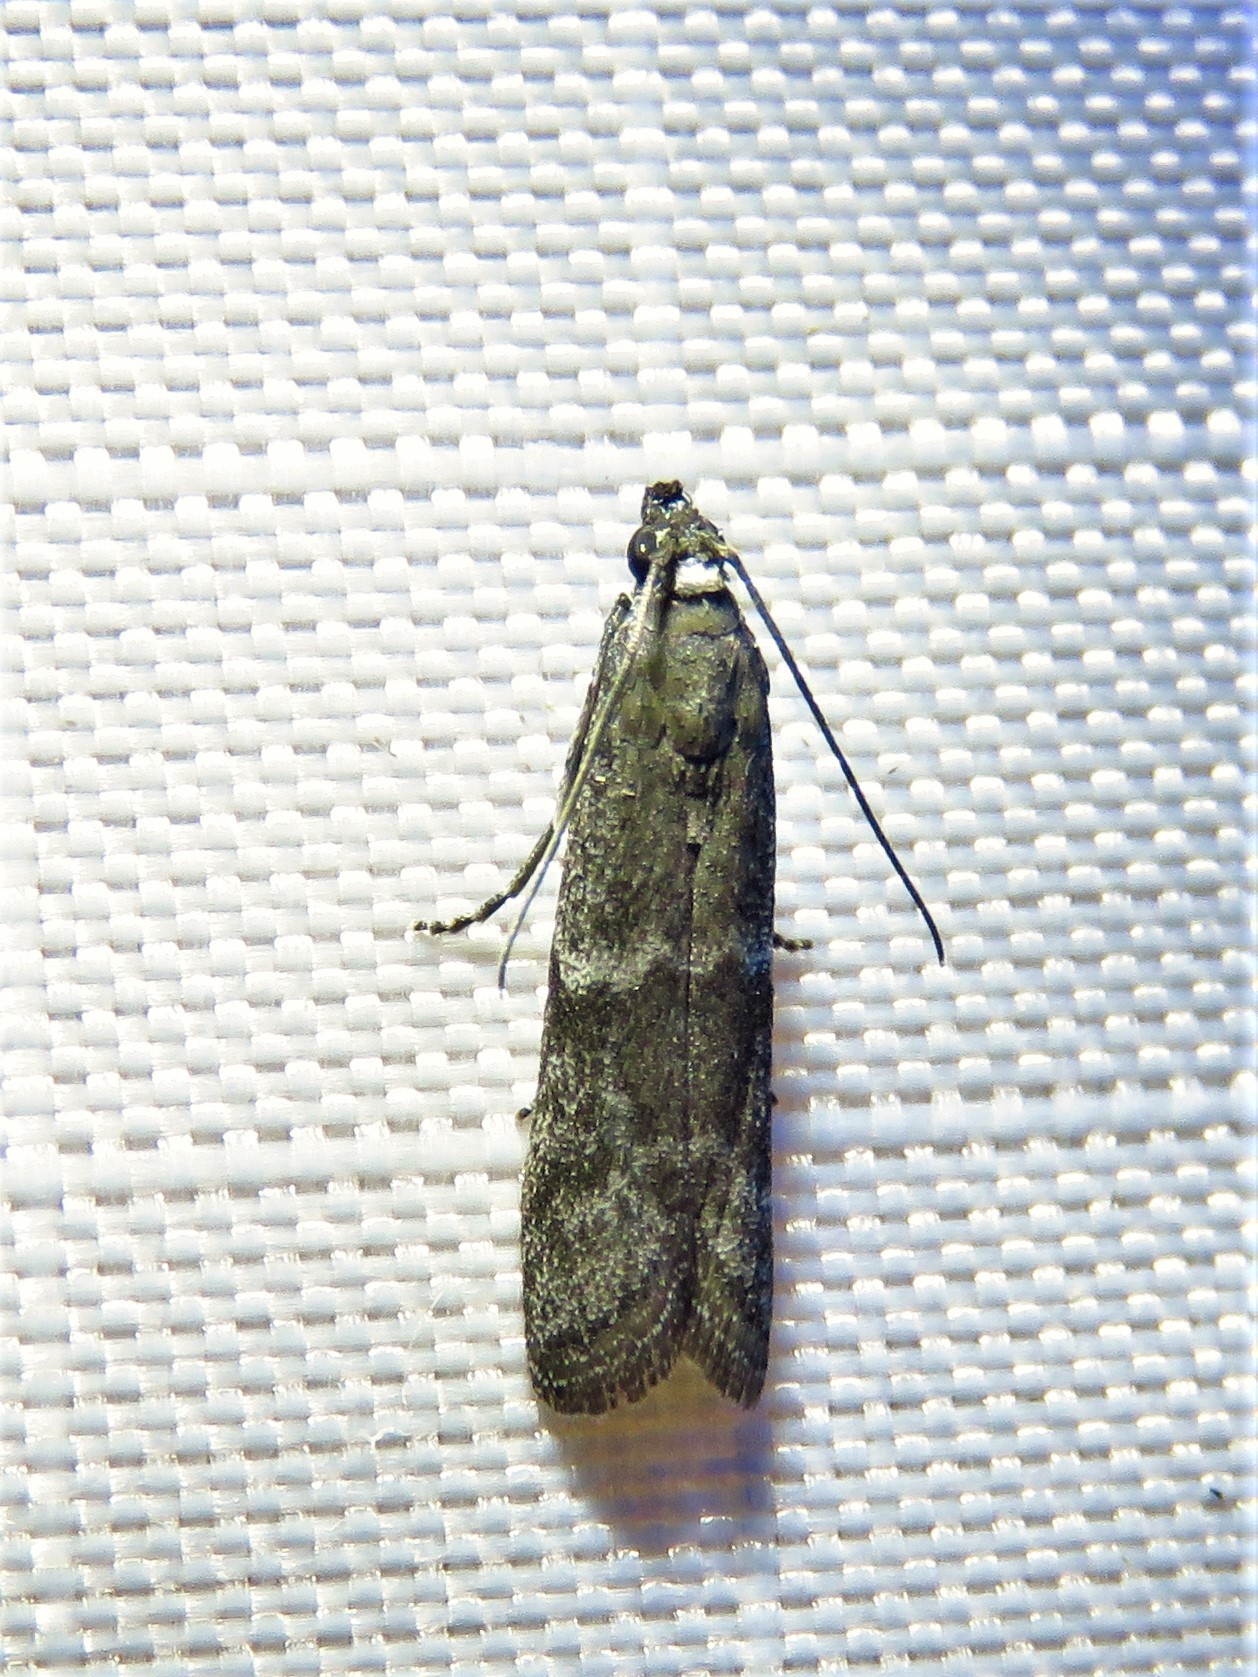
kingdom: Animalia
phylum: Arthropoda
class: Insecta
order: Lepidoptera
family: Pyralidae
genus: Eurythmia
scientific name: Eurythmia angulella
